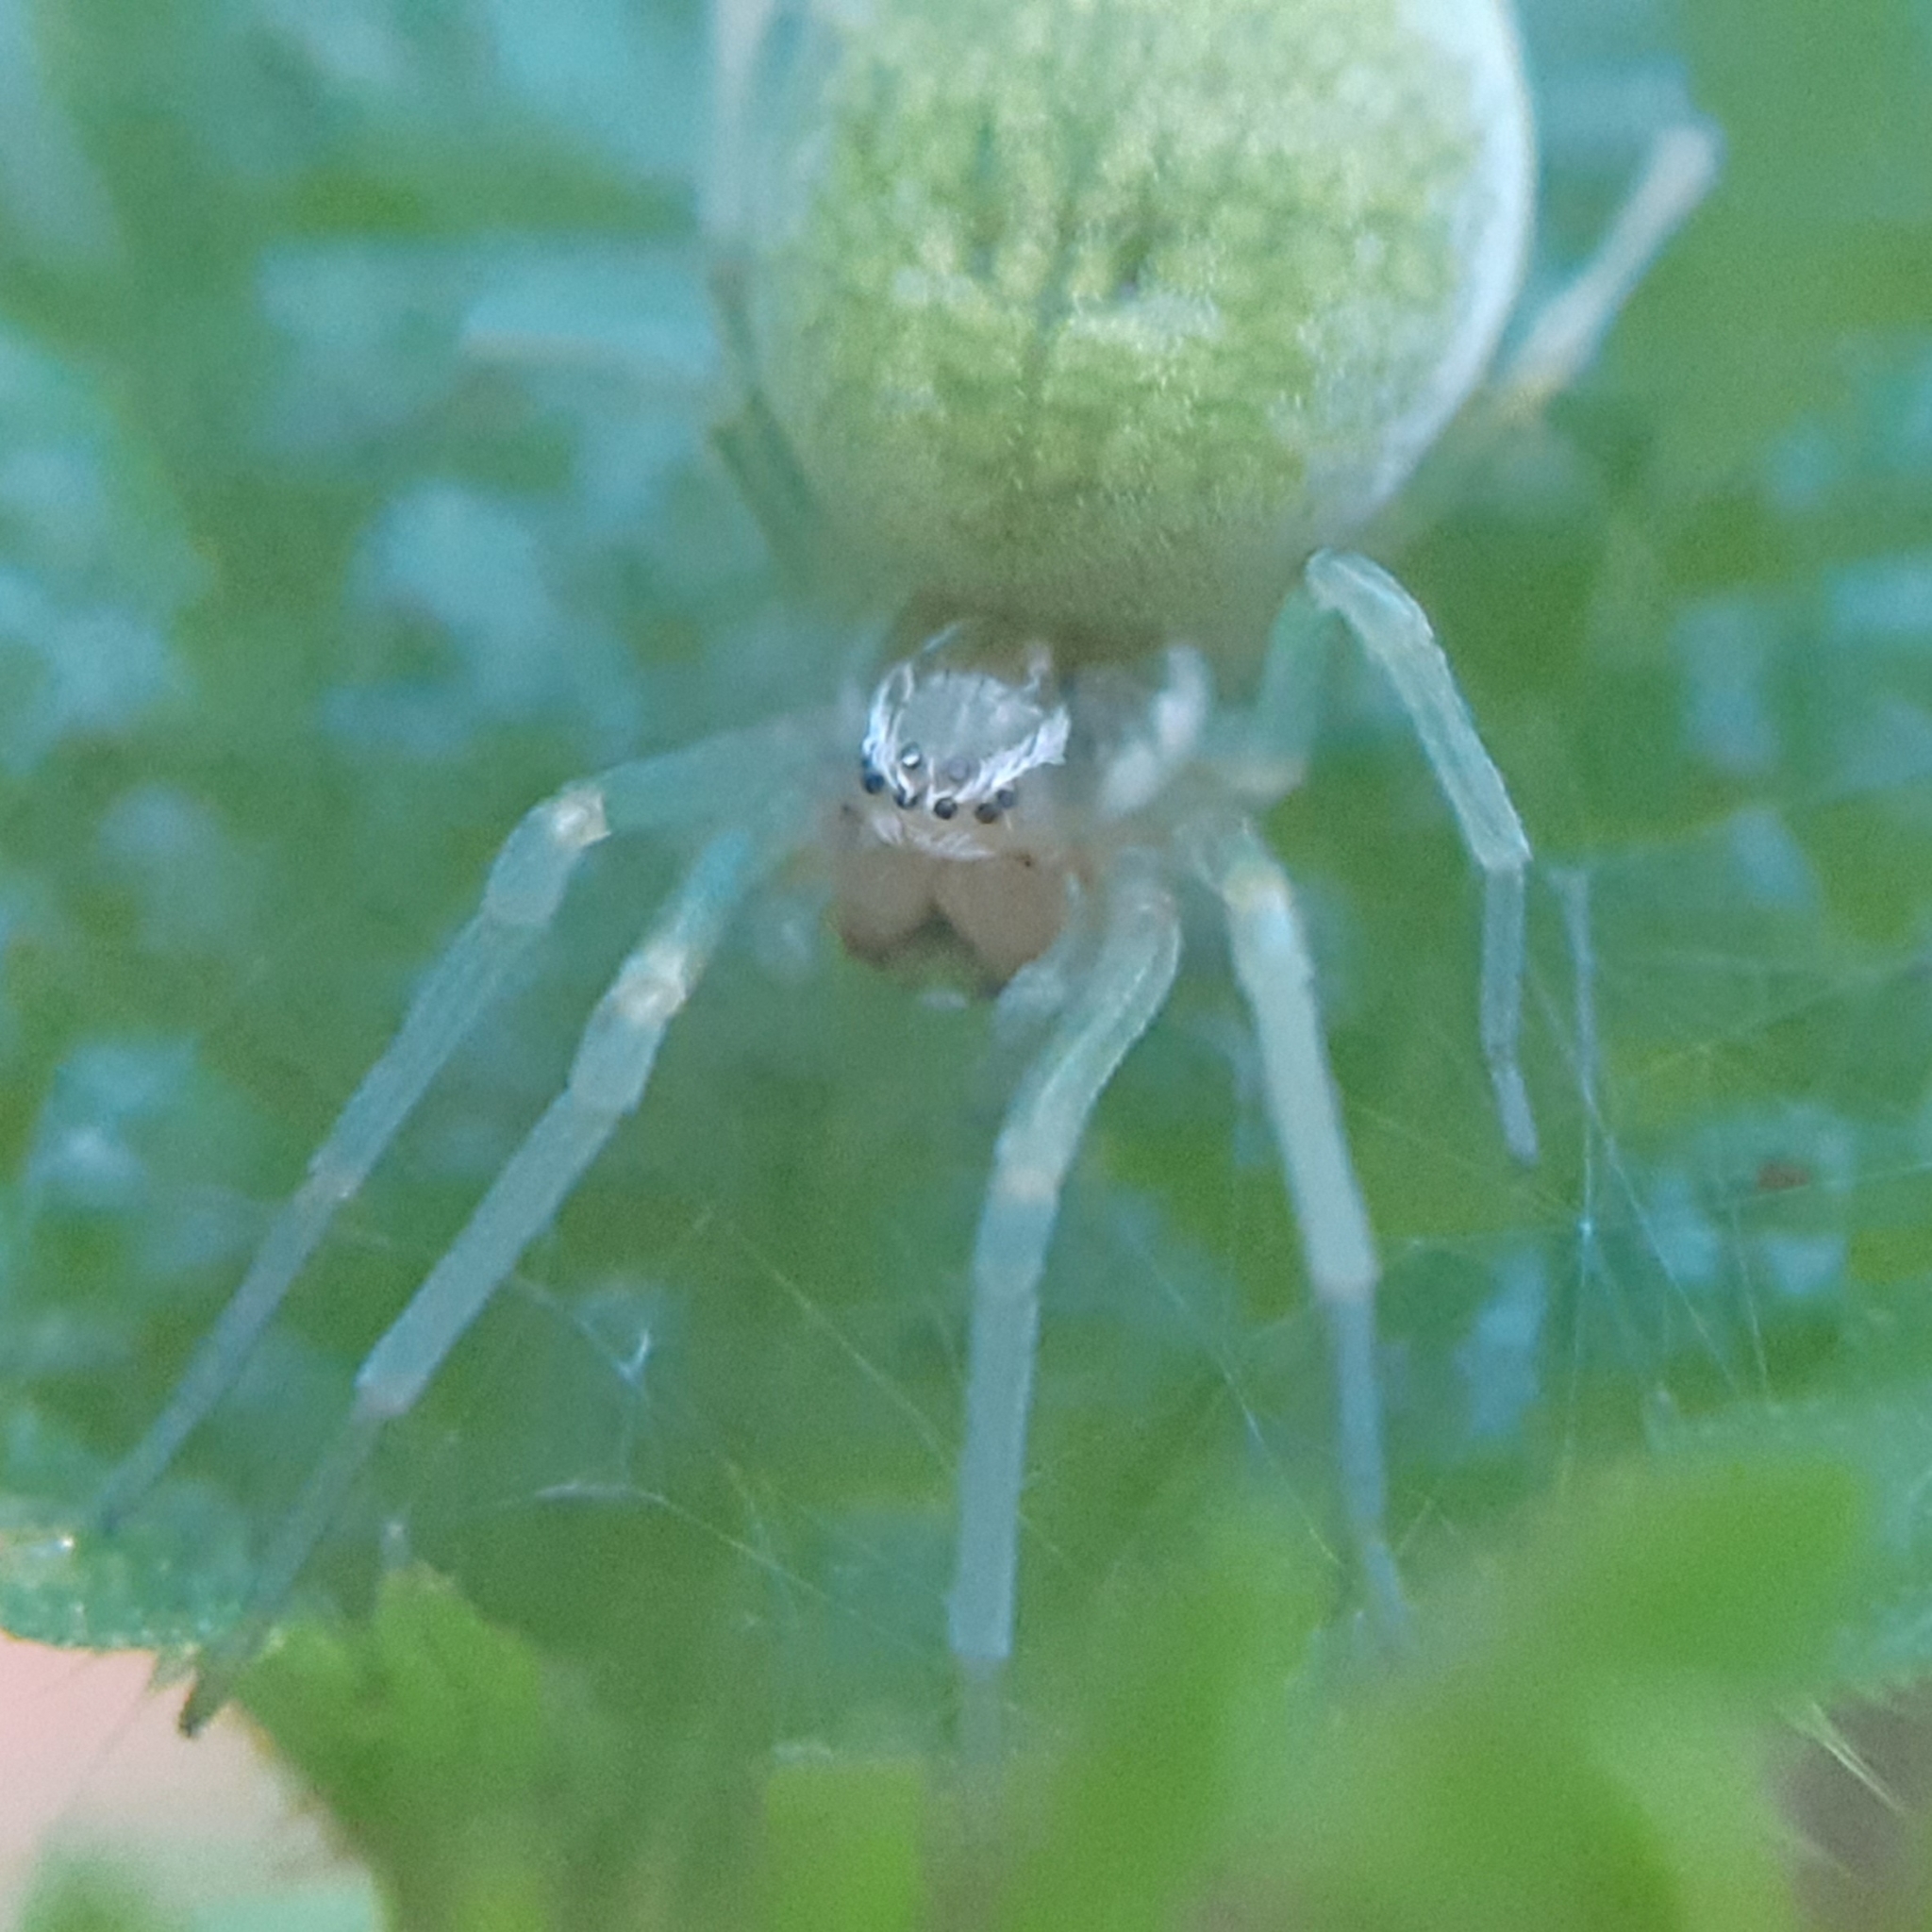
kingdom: Animalia
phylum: Arthropoda
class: Arachnida
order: Araneae
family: Dictynidae
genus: Nigma
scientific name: Nigma walckenaeri
